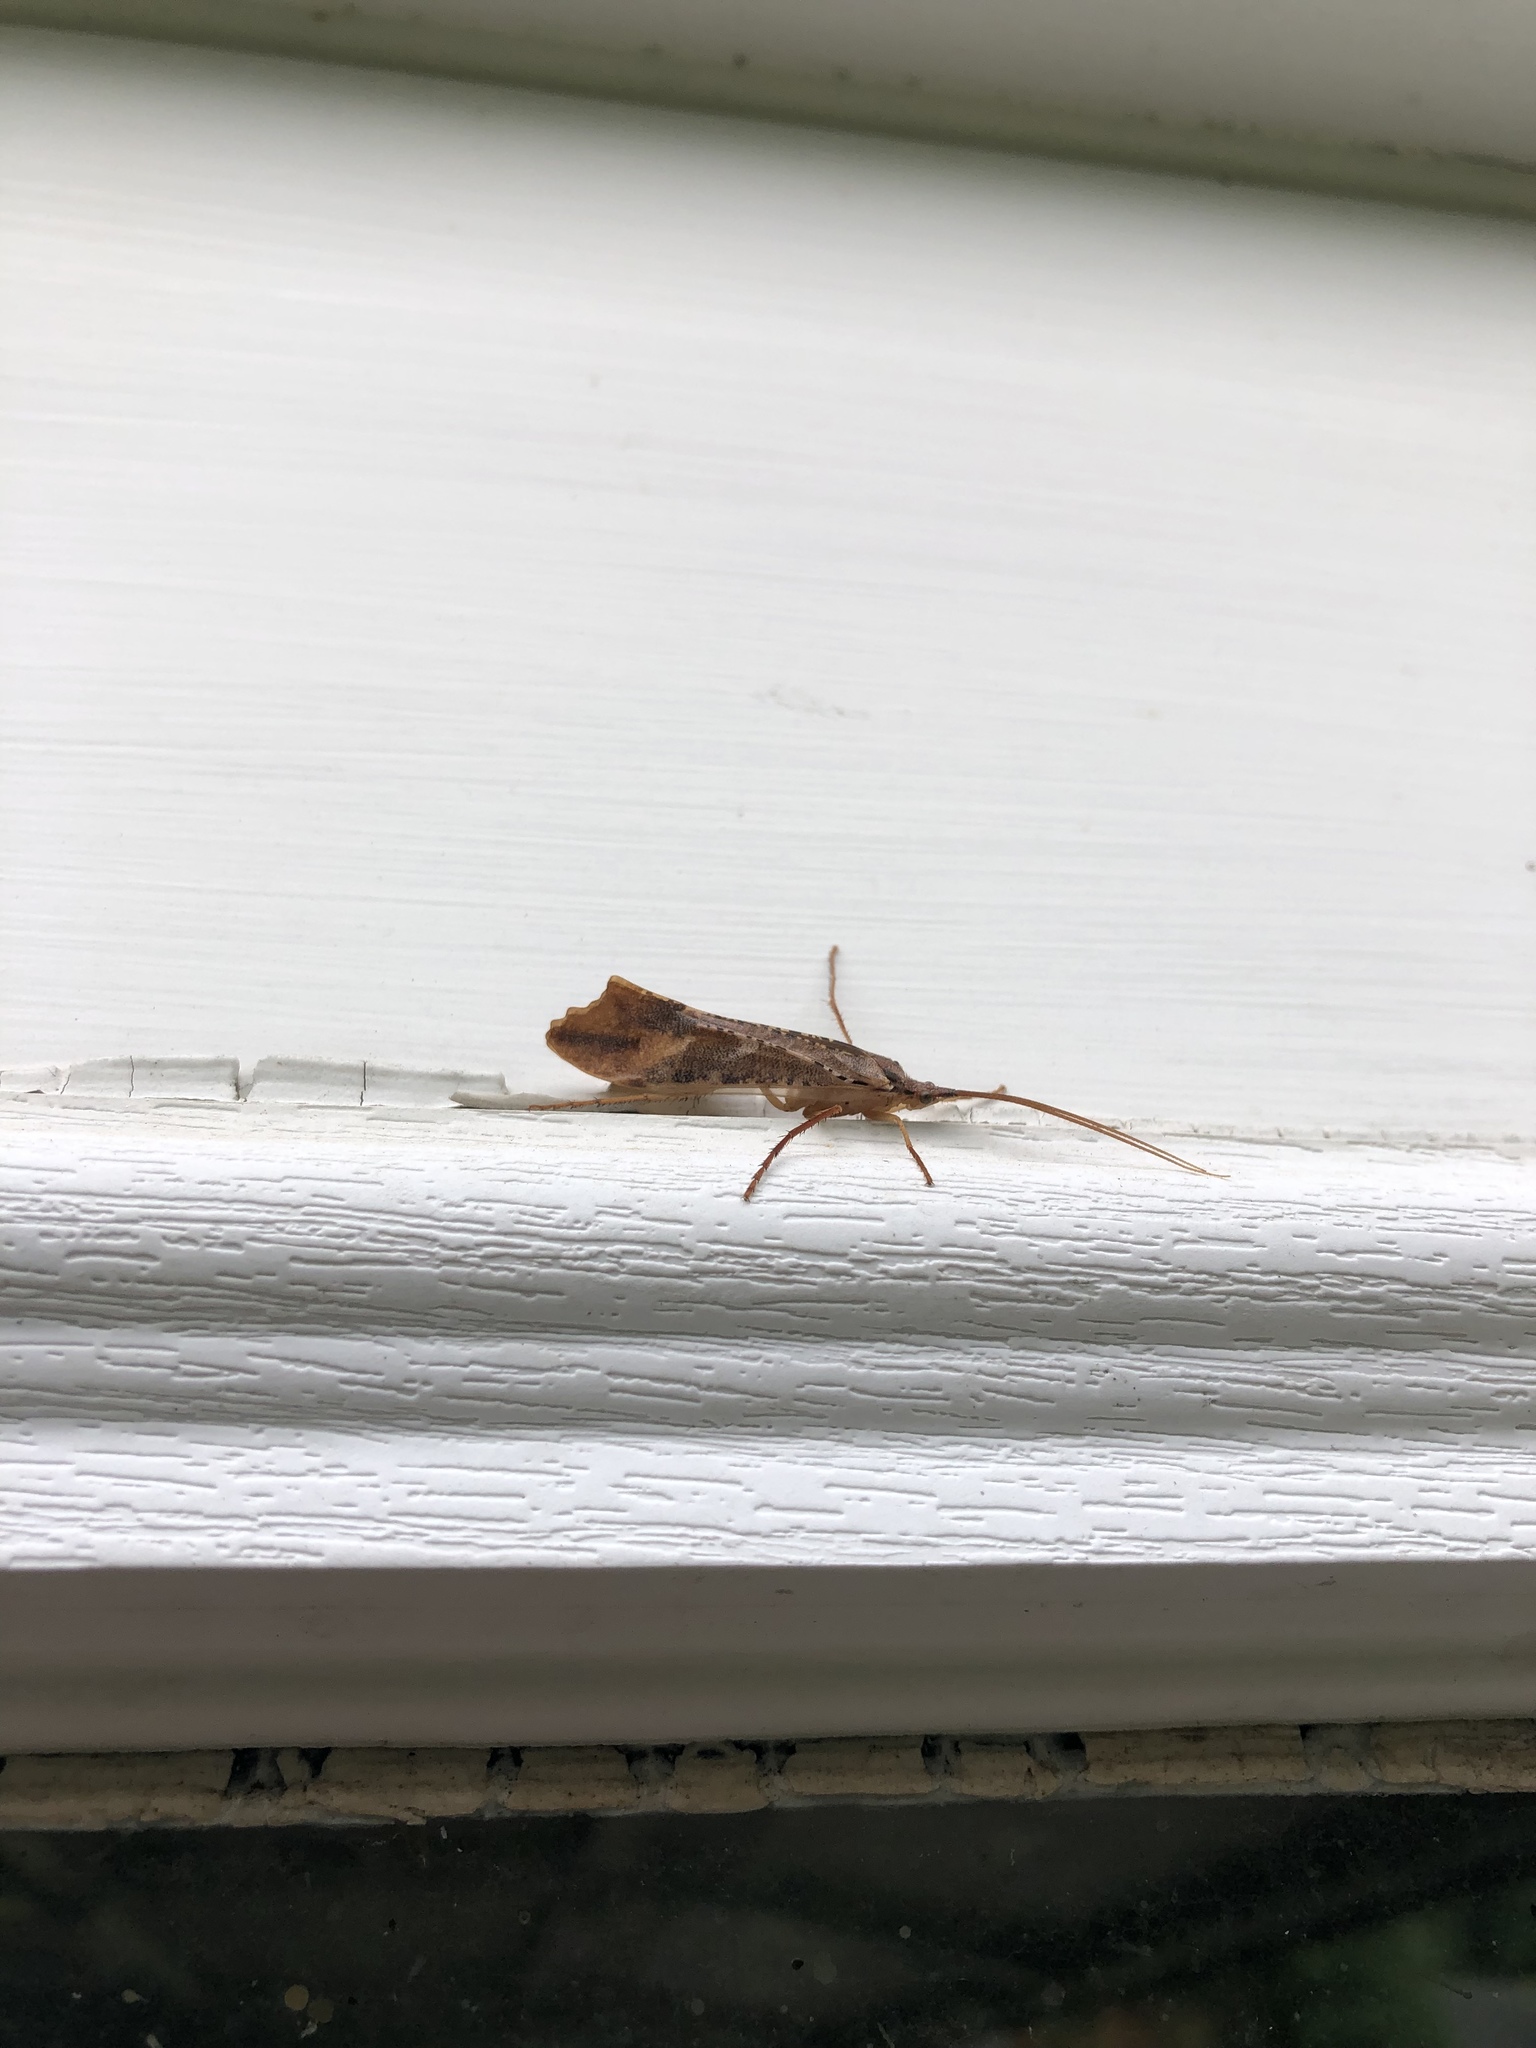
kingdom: Animalia
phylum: Arthropoda
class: Insecta
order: Trichoptera
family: Limnephilidae
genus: Nemotaulius
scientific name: Nemotaulius hostilis
